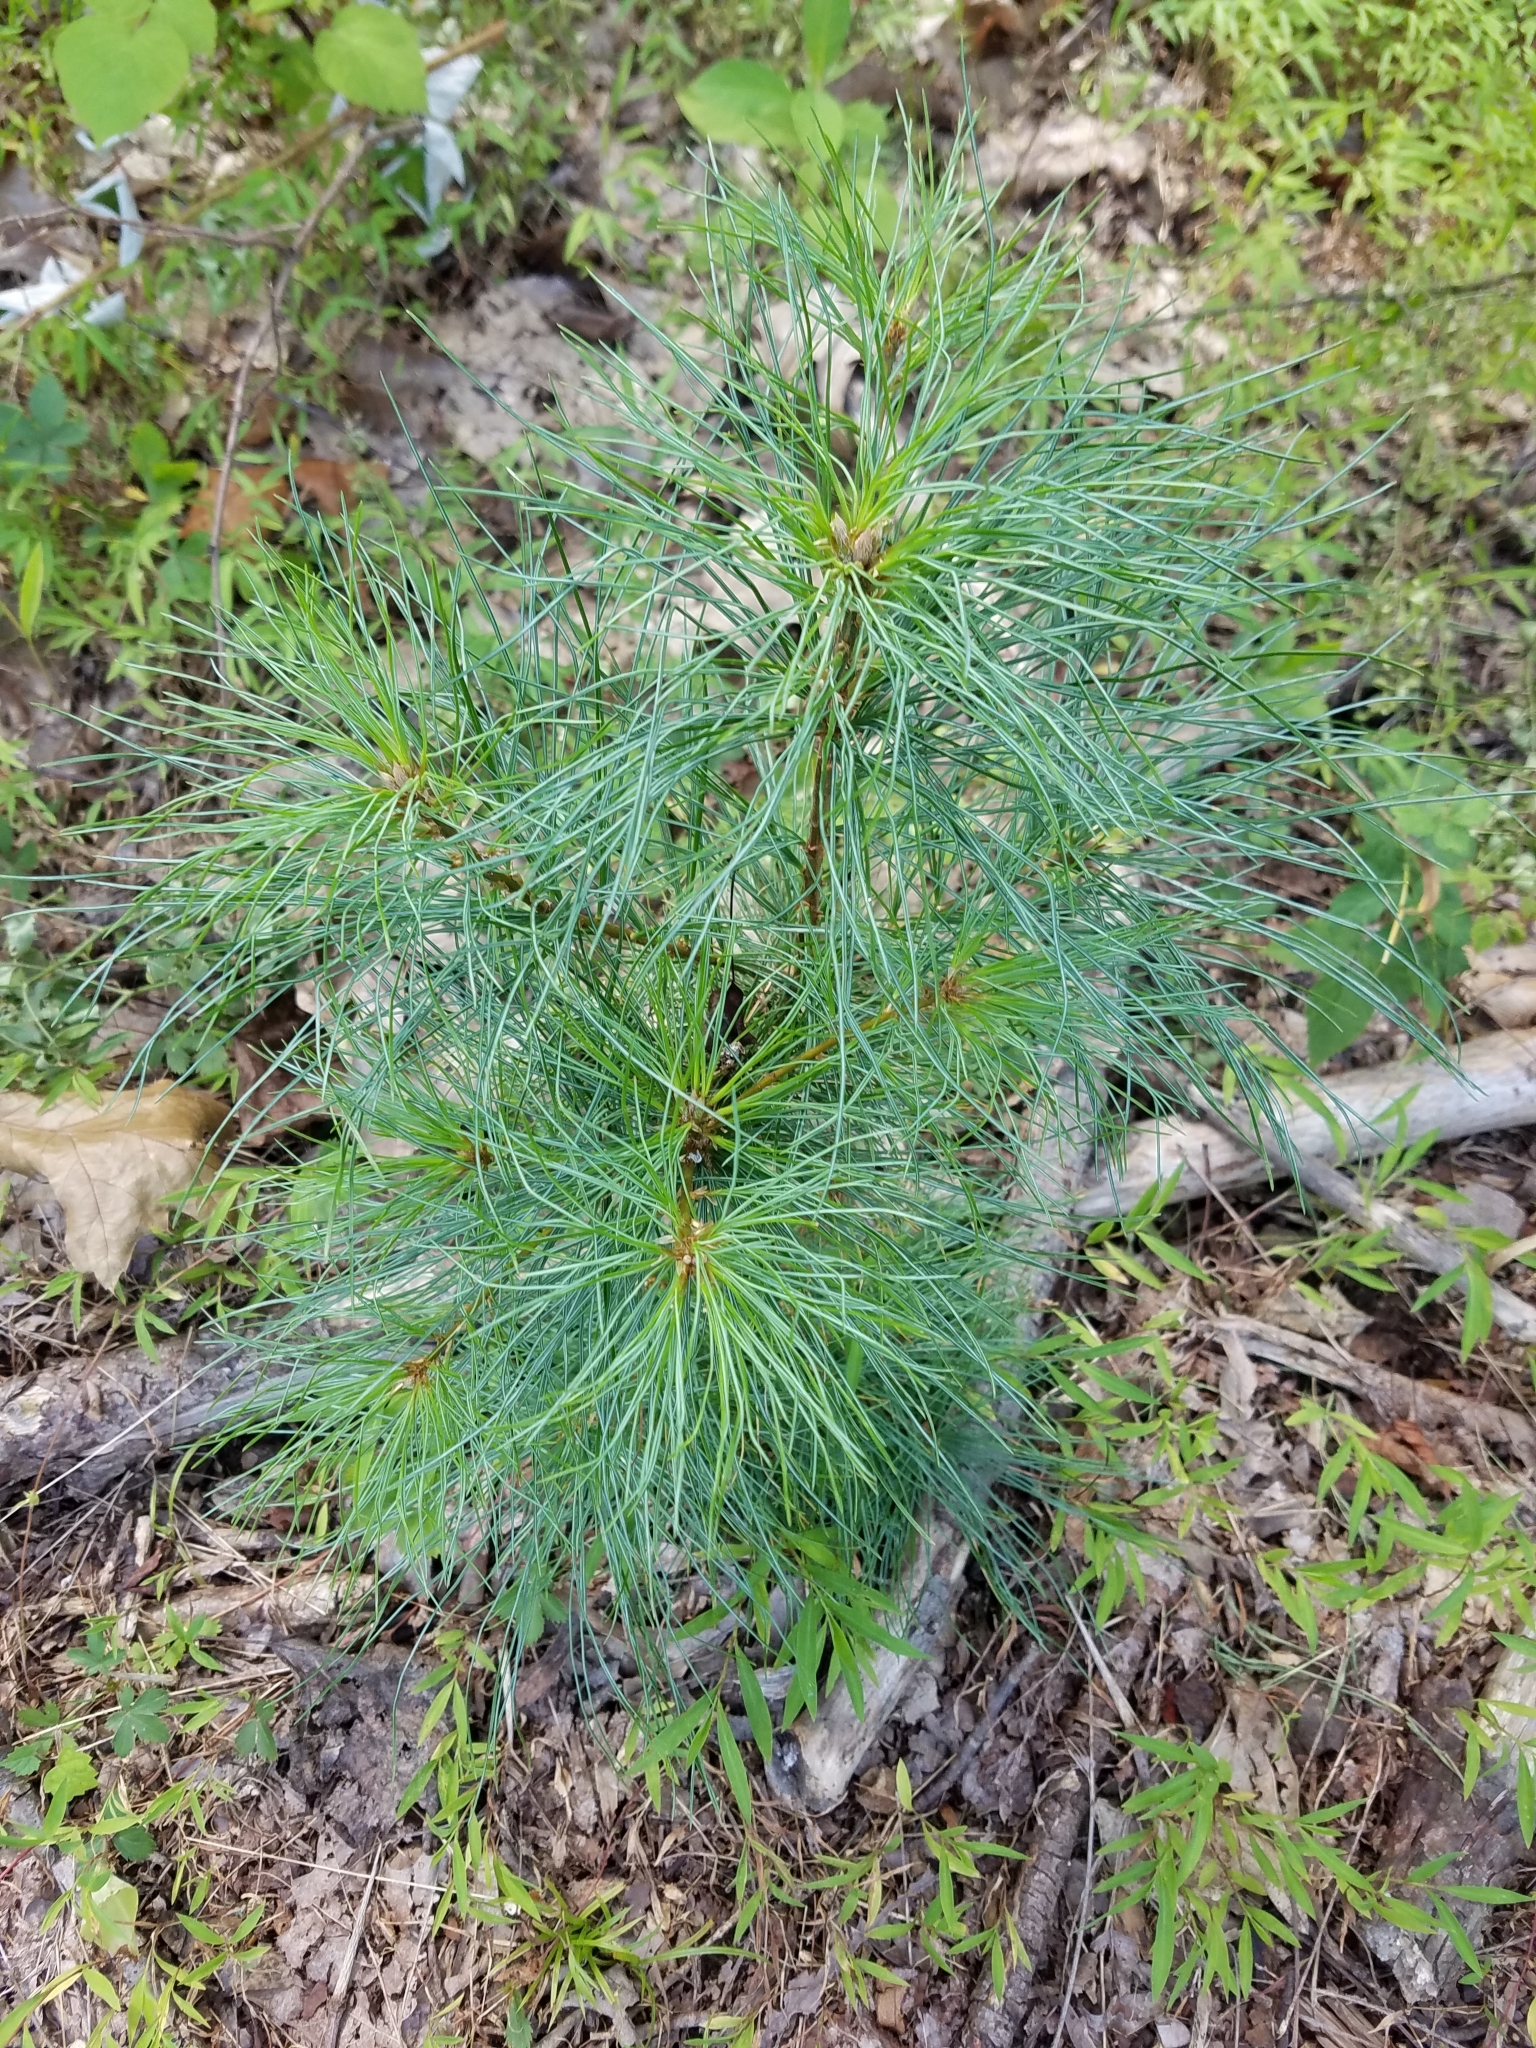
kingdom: Plantae
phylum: Tracheophyta
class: Pinopsida
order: Pinales
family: Pinaceae
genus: Pinus
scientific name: Pinus strobus
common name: Weymouth pine
